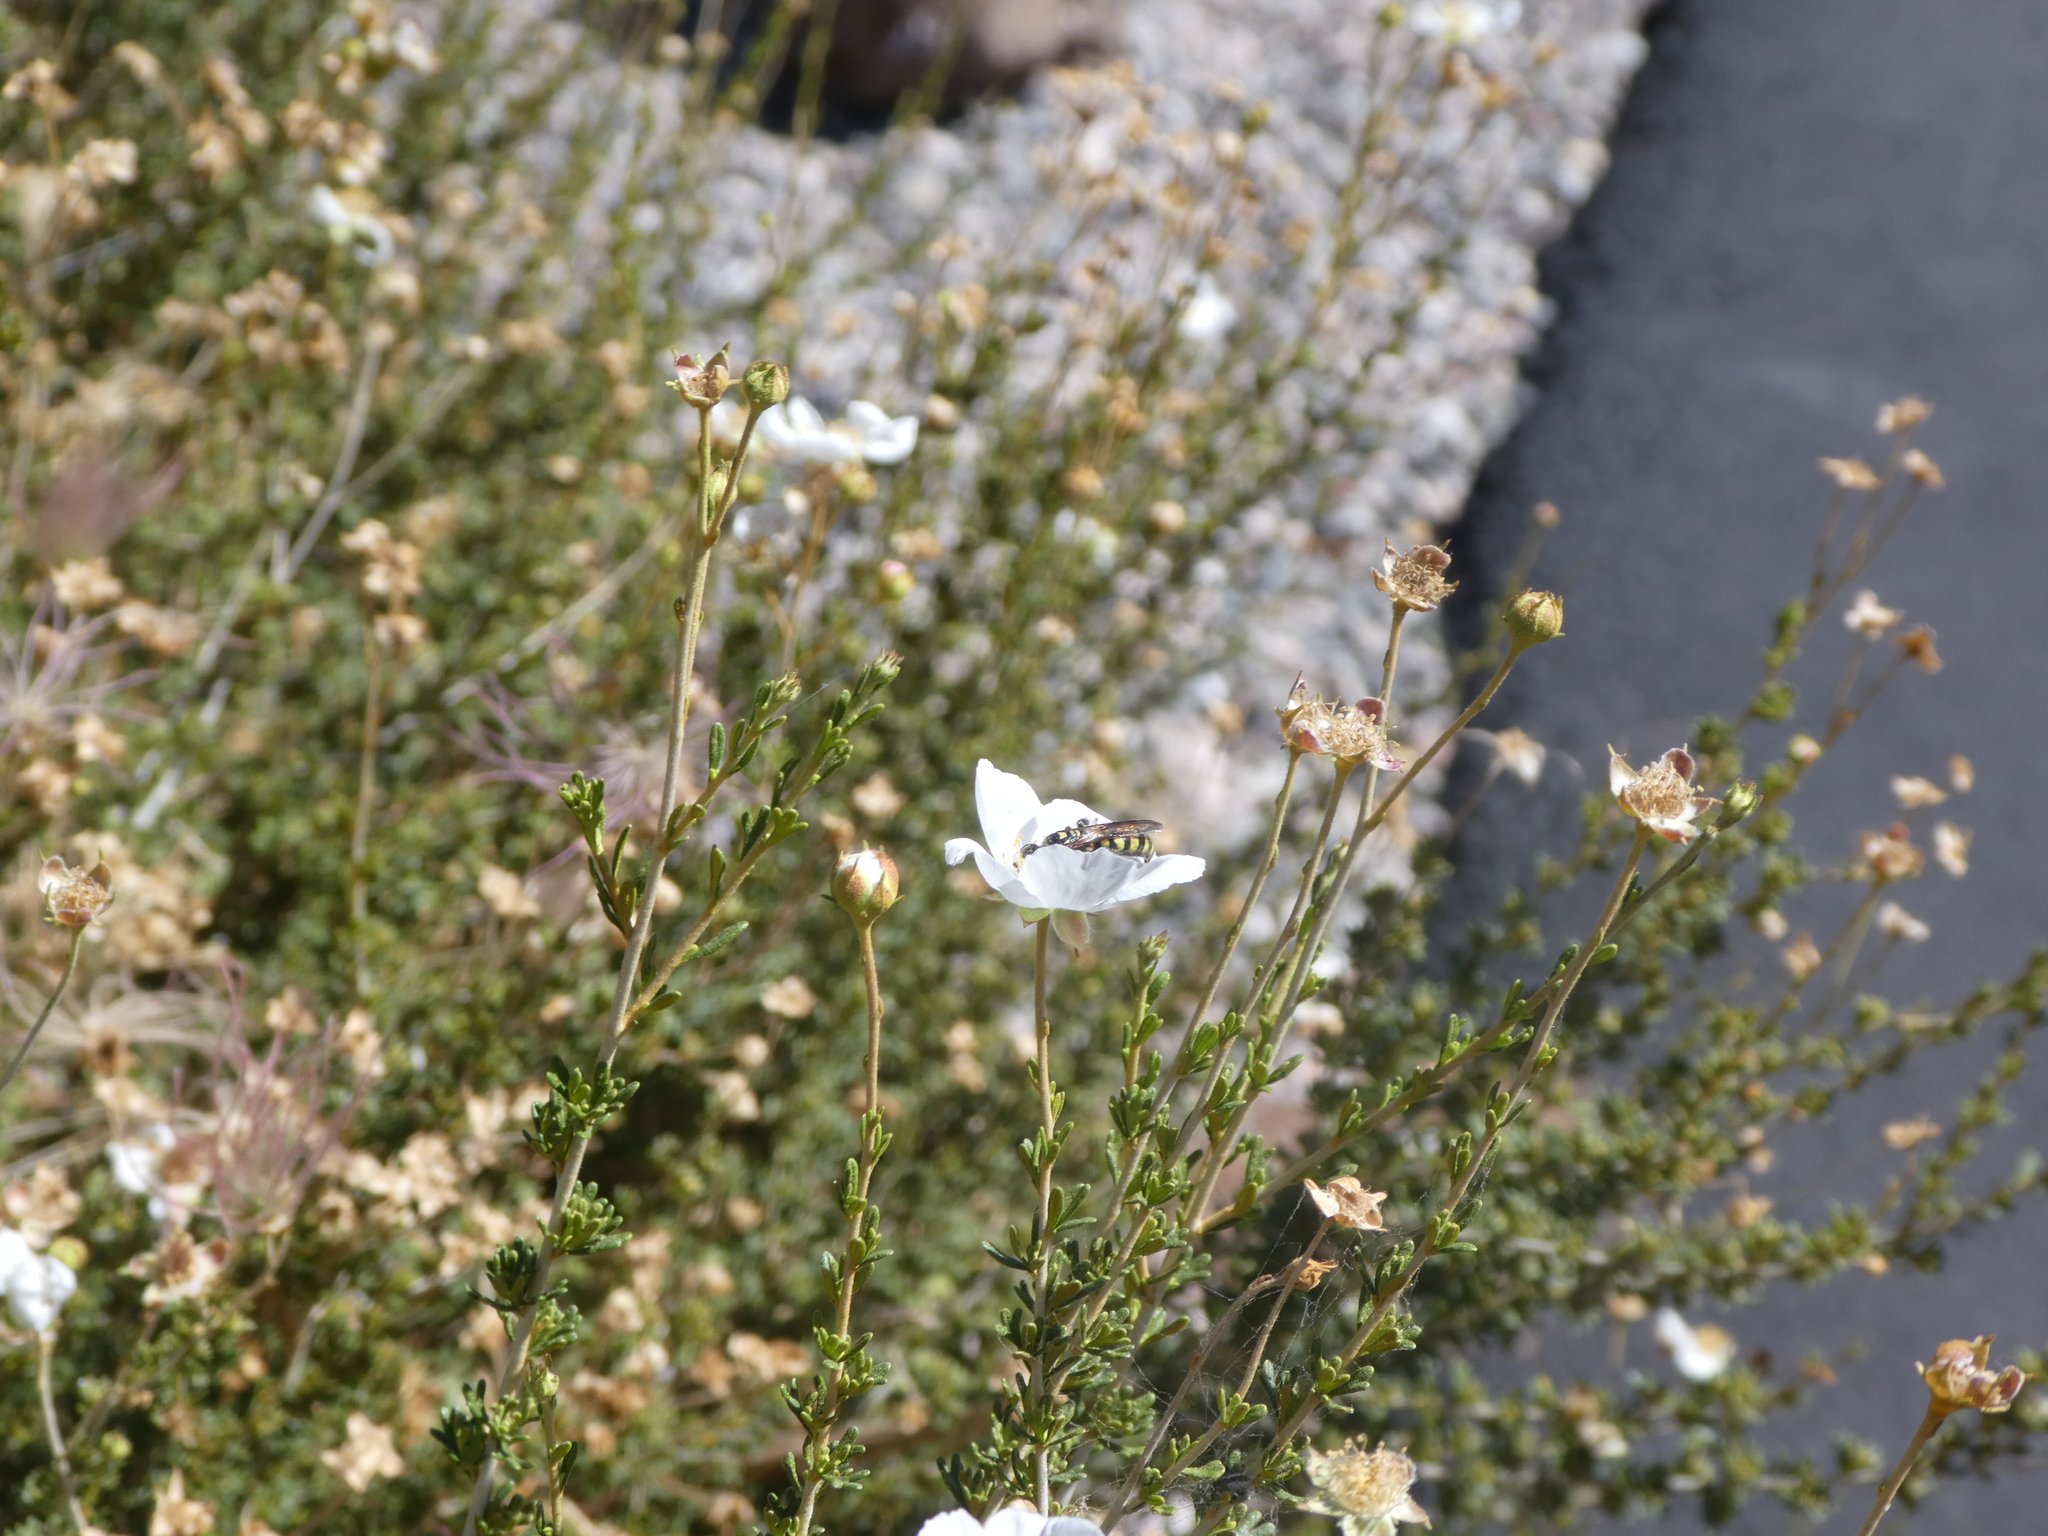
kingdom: Animalia
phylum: Arthropoda
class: Insecta
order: Hymenoptera
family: Tiphiidae
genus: Myzinum
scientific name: Myzinum maculatum
